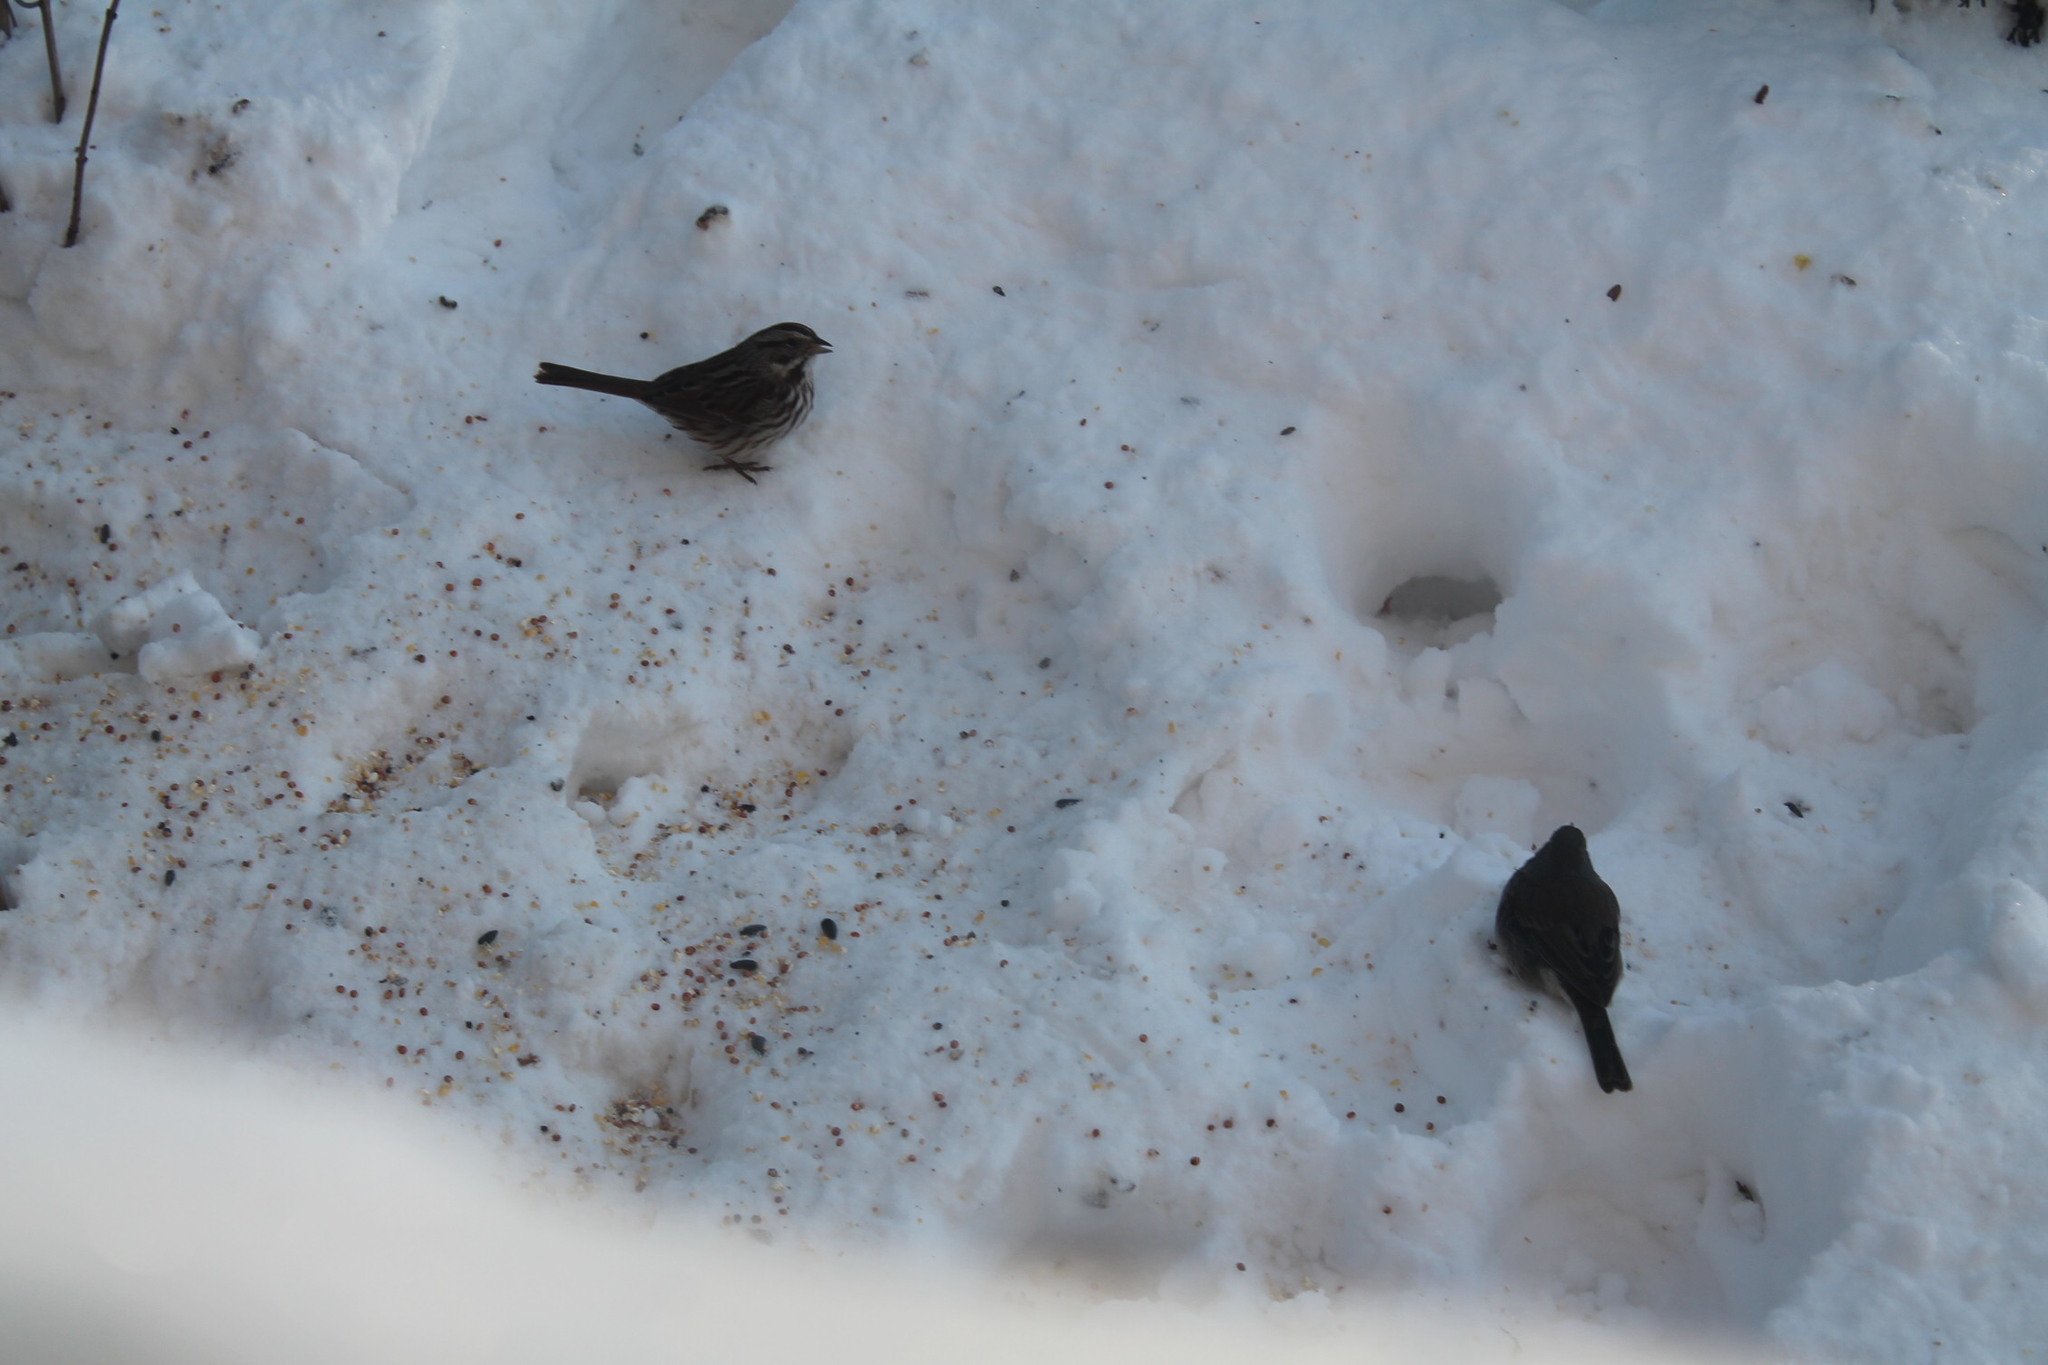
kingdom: Animalia
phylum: Chordata
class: Aves
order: Passeriformes
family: Passerellidae
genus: Melospiza
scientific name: Melospiza melodia
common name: Song sparrow
